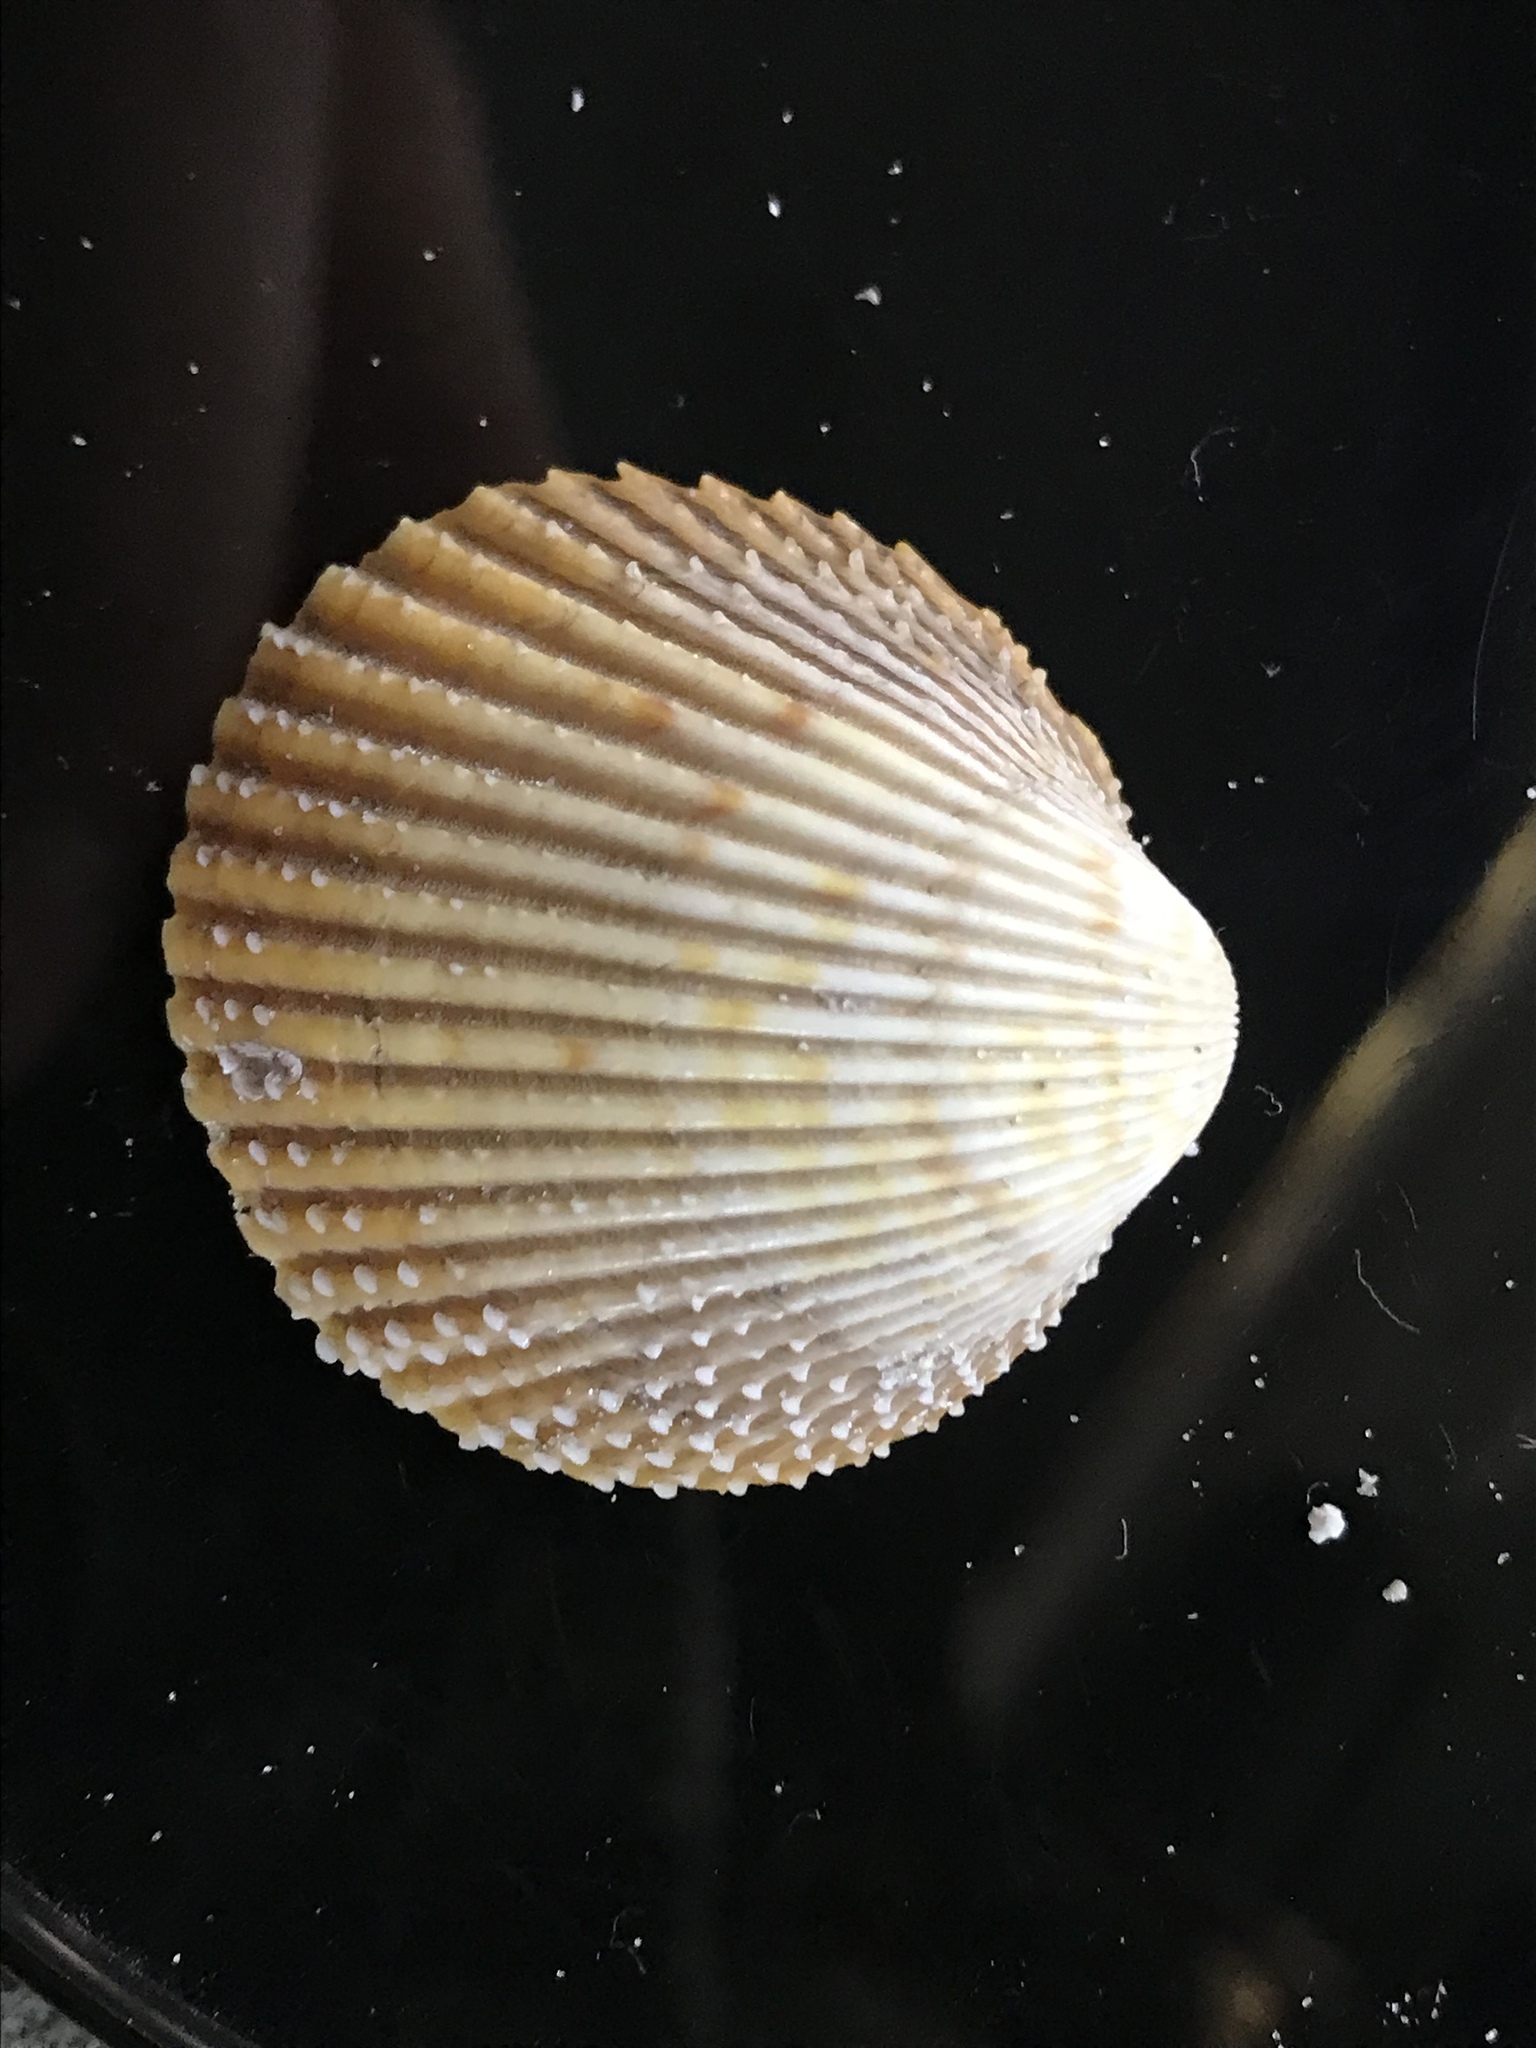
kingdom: Animalia
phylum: Mollusca
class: Bivalvia
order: Cardiida
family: Cardiidae
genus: Dallocardia
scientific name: Dallocardia muricata
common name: Yellow pricklycockle
